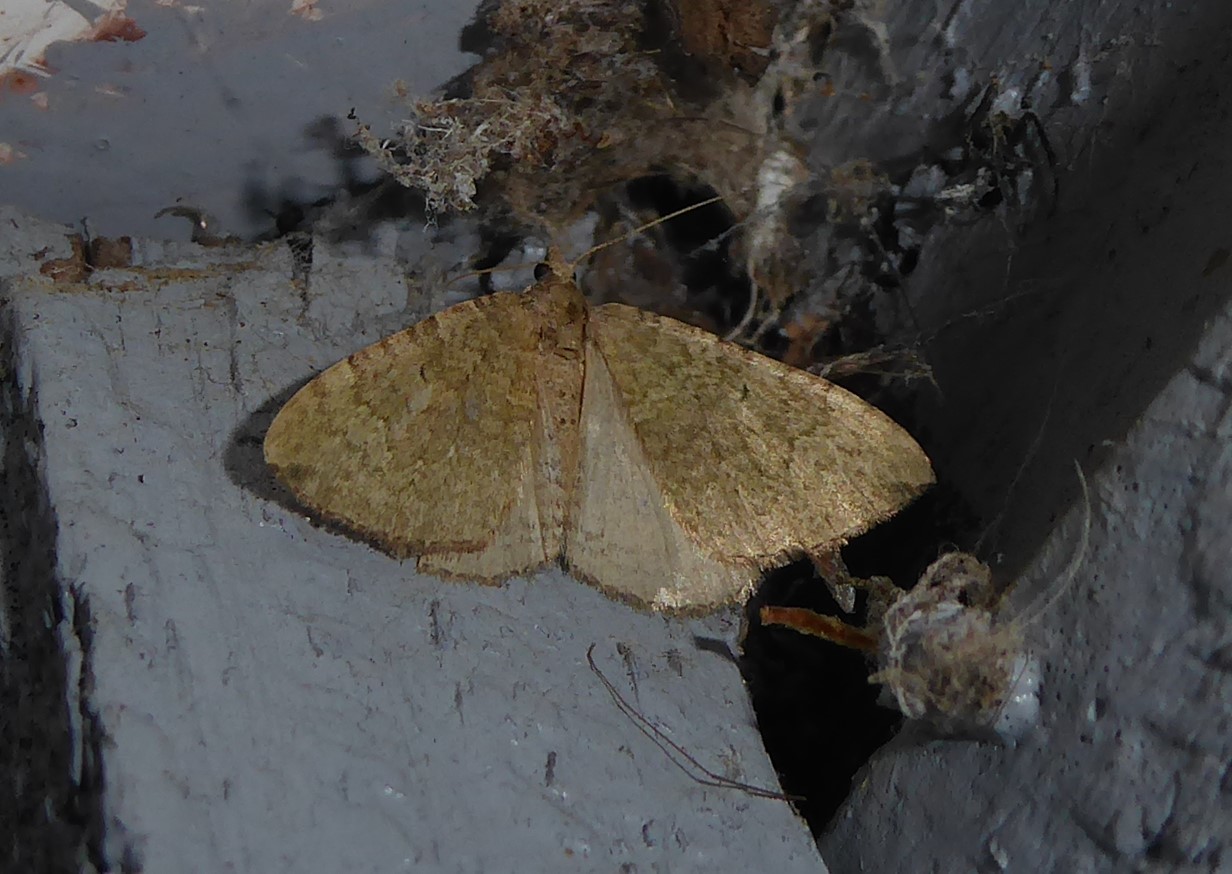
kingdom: Animalia
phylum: Arthropoda
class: Insecta
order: Lepidoptera
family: Geometridae
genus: Epyaxa
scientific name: Epyaxa rosearia
